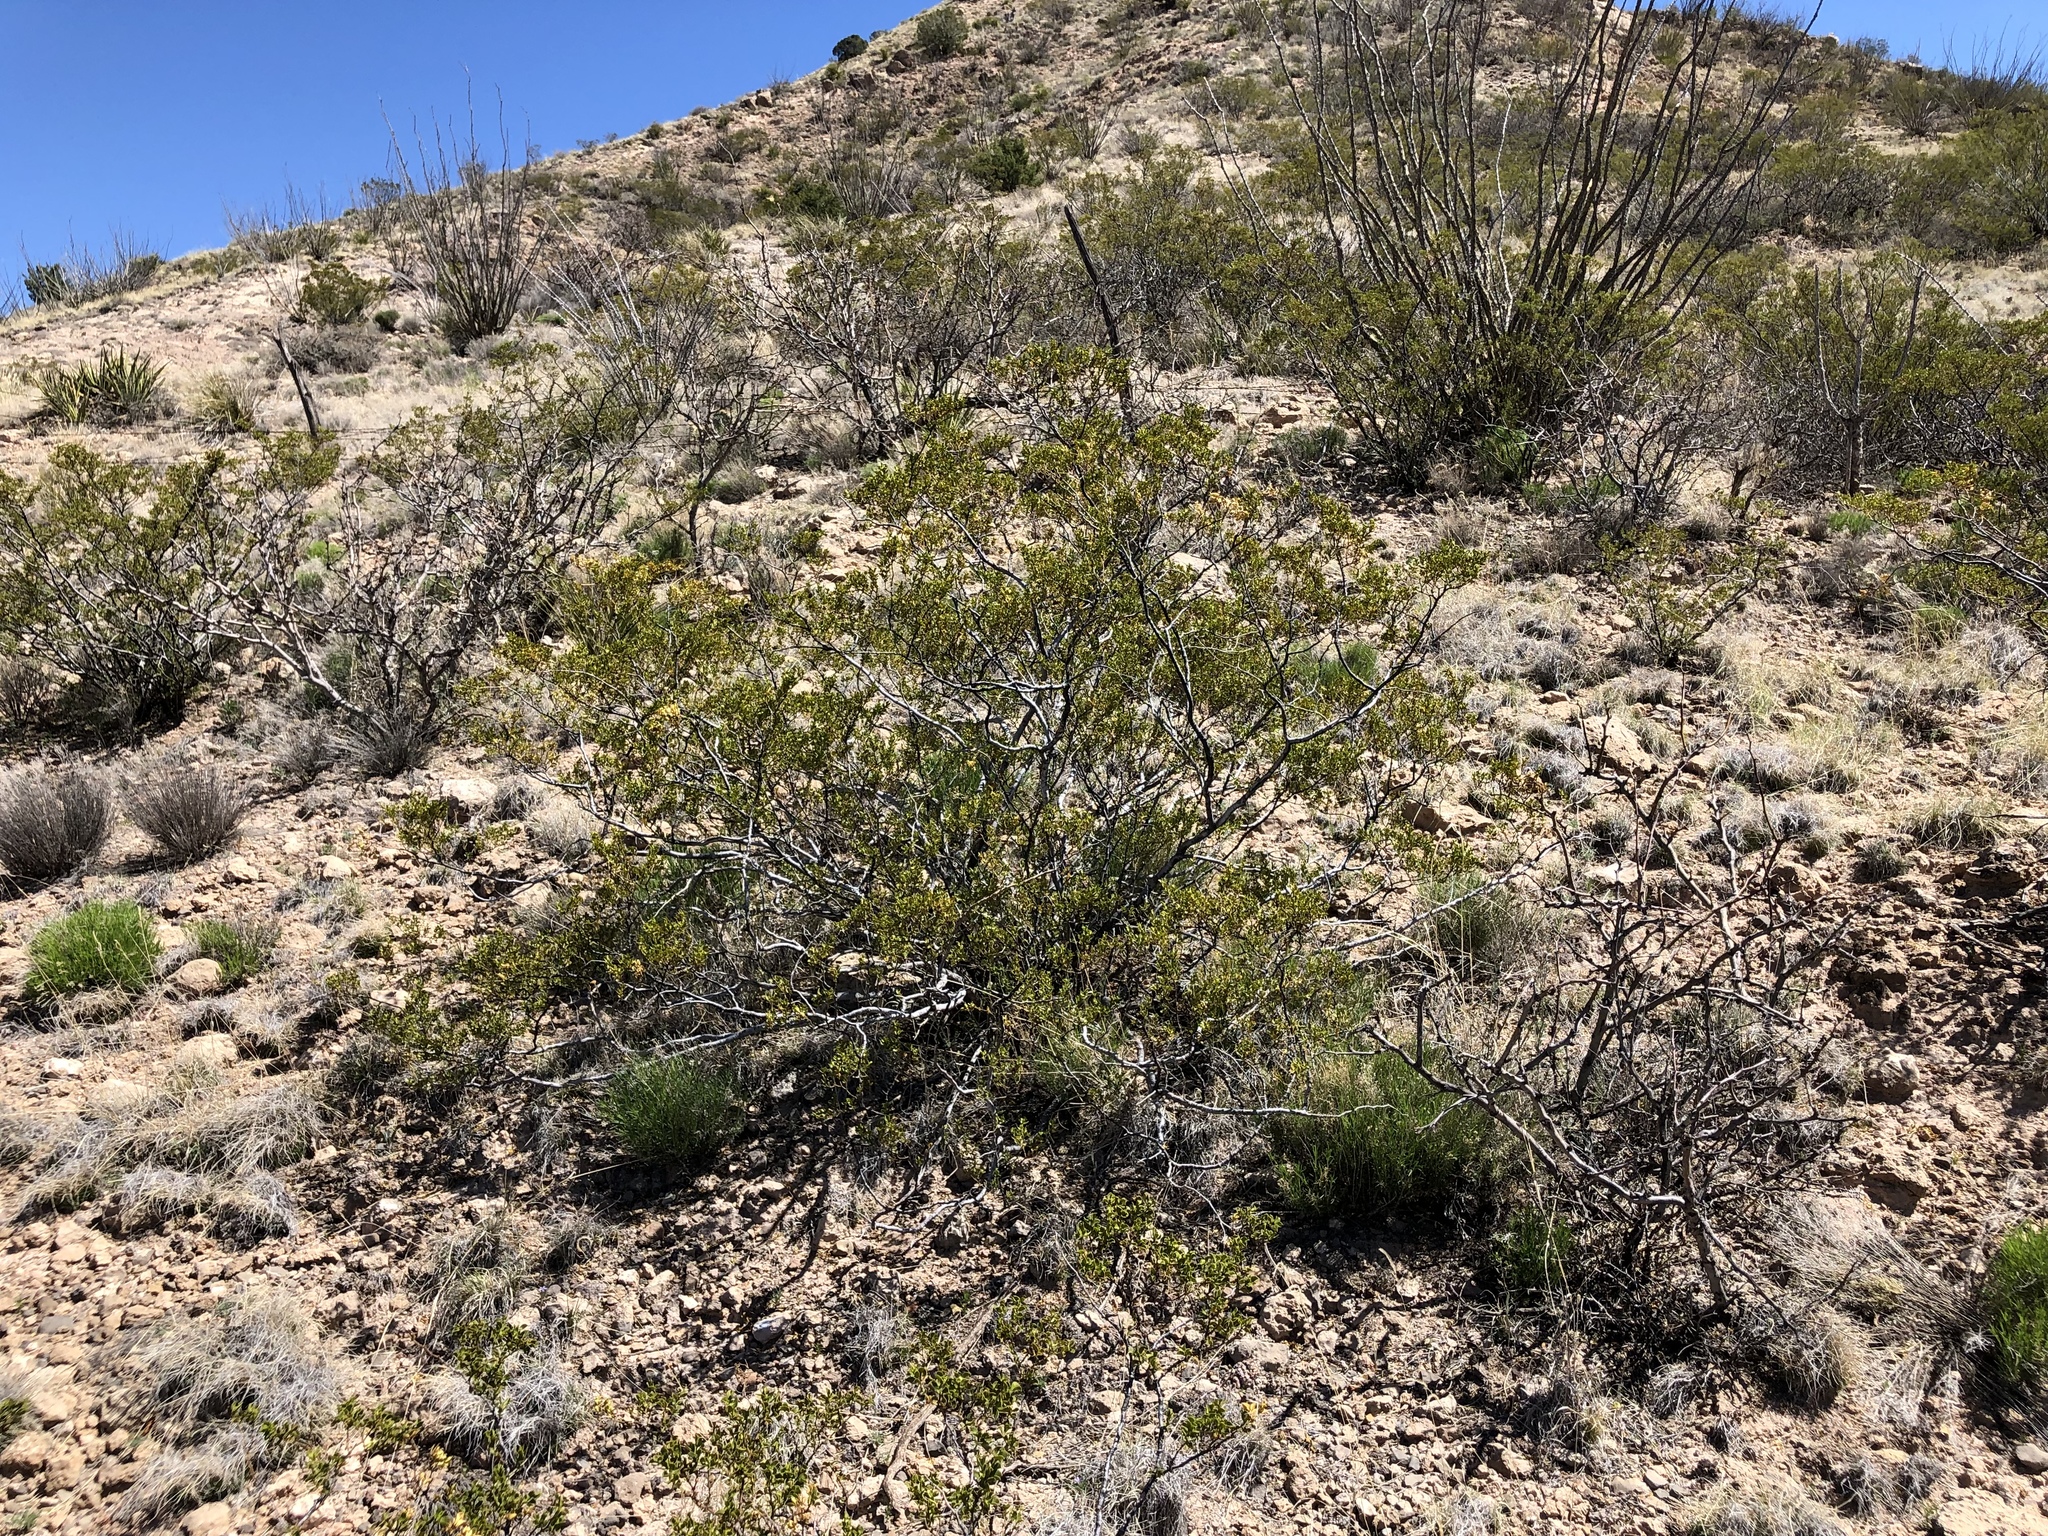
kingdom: Plantae
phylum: Tracheophyta
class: Magnoliopsida
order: Zygophyllales
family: Zygophyllaceae
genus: Larrea
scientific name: Larrea tridentata
